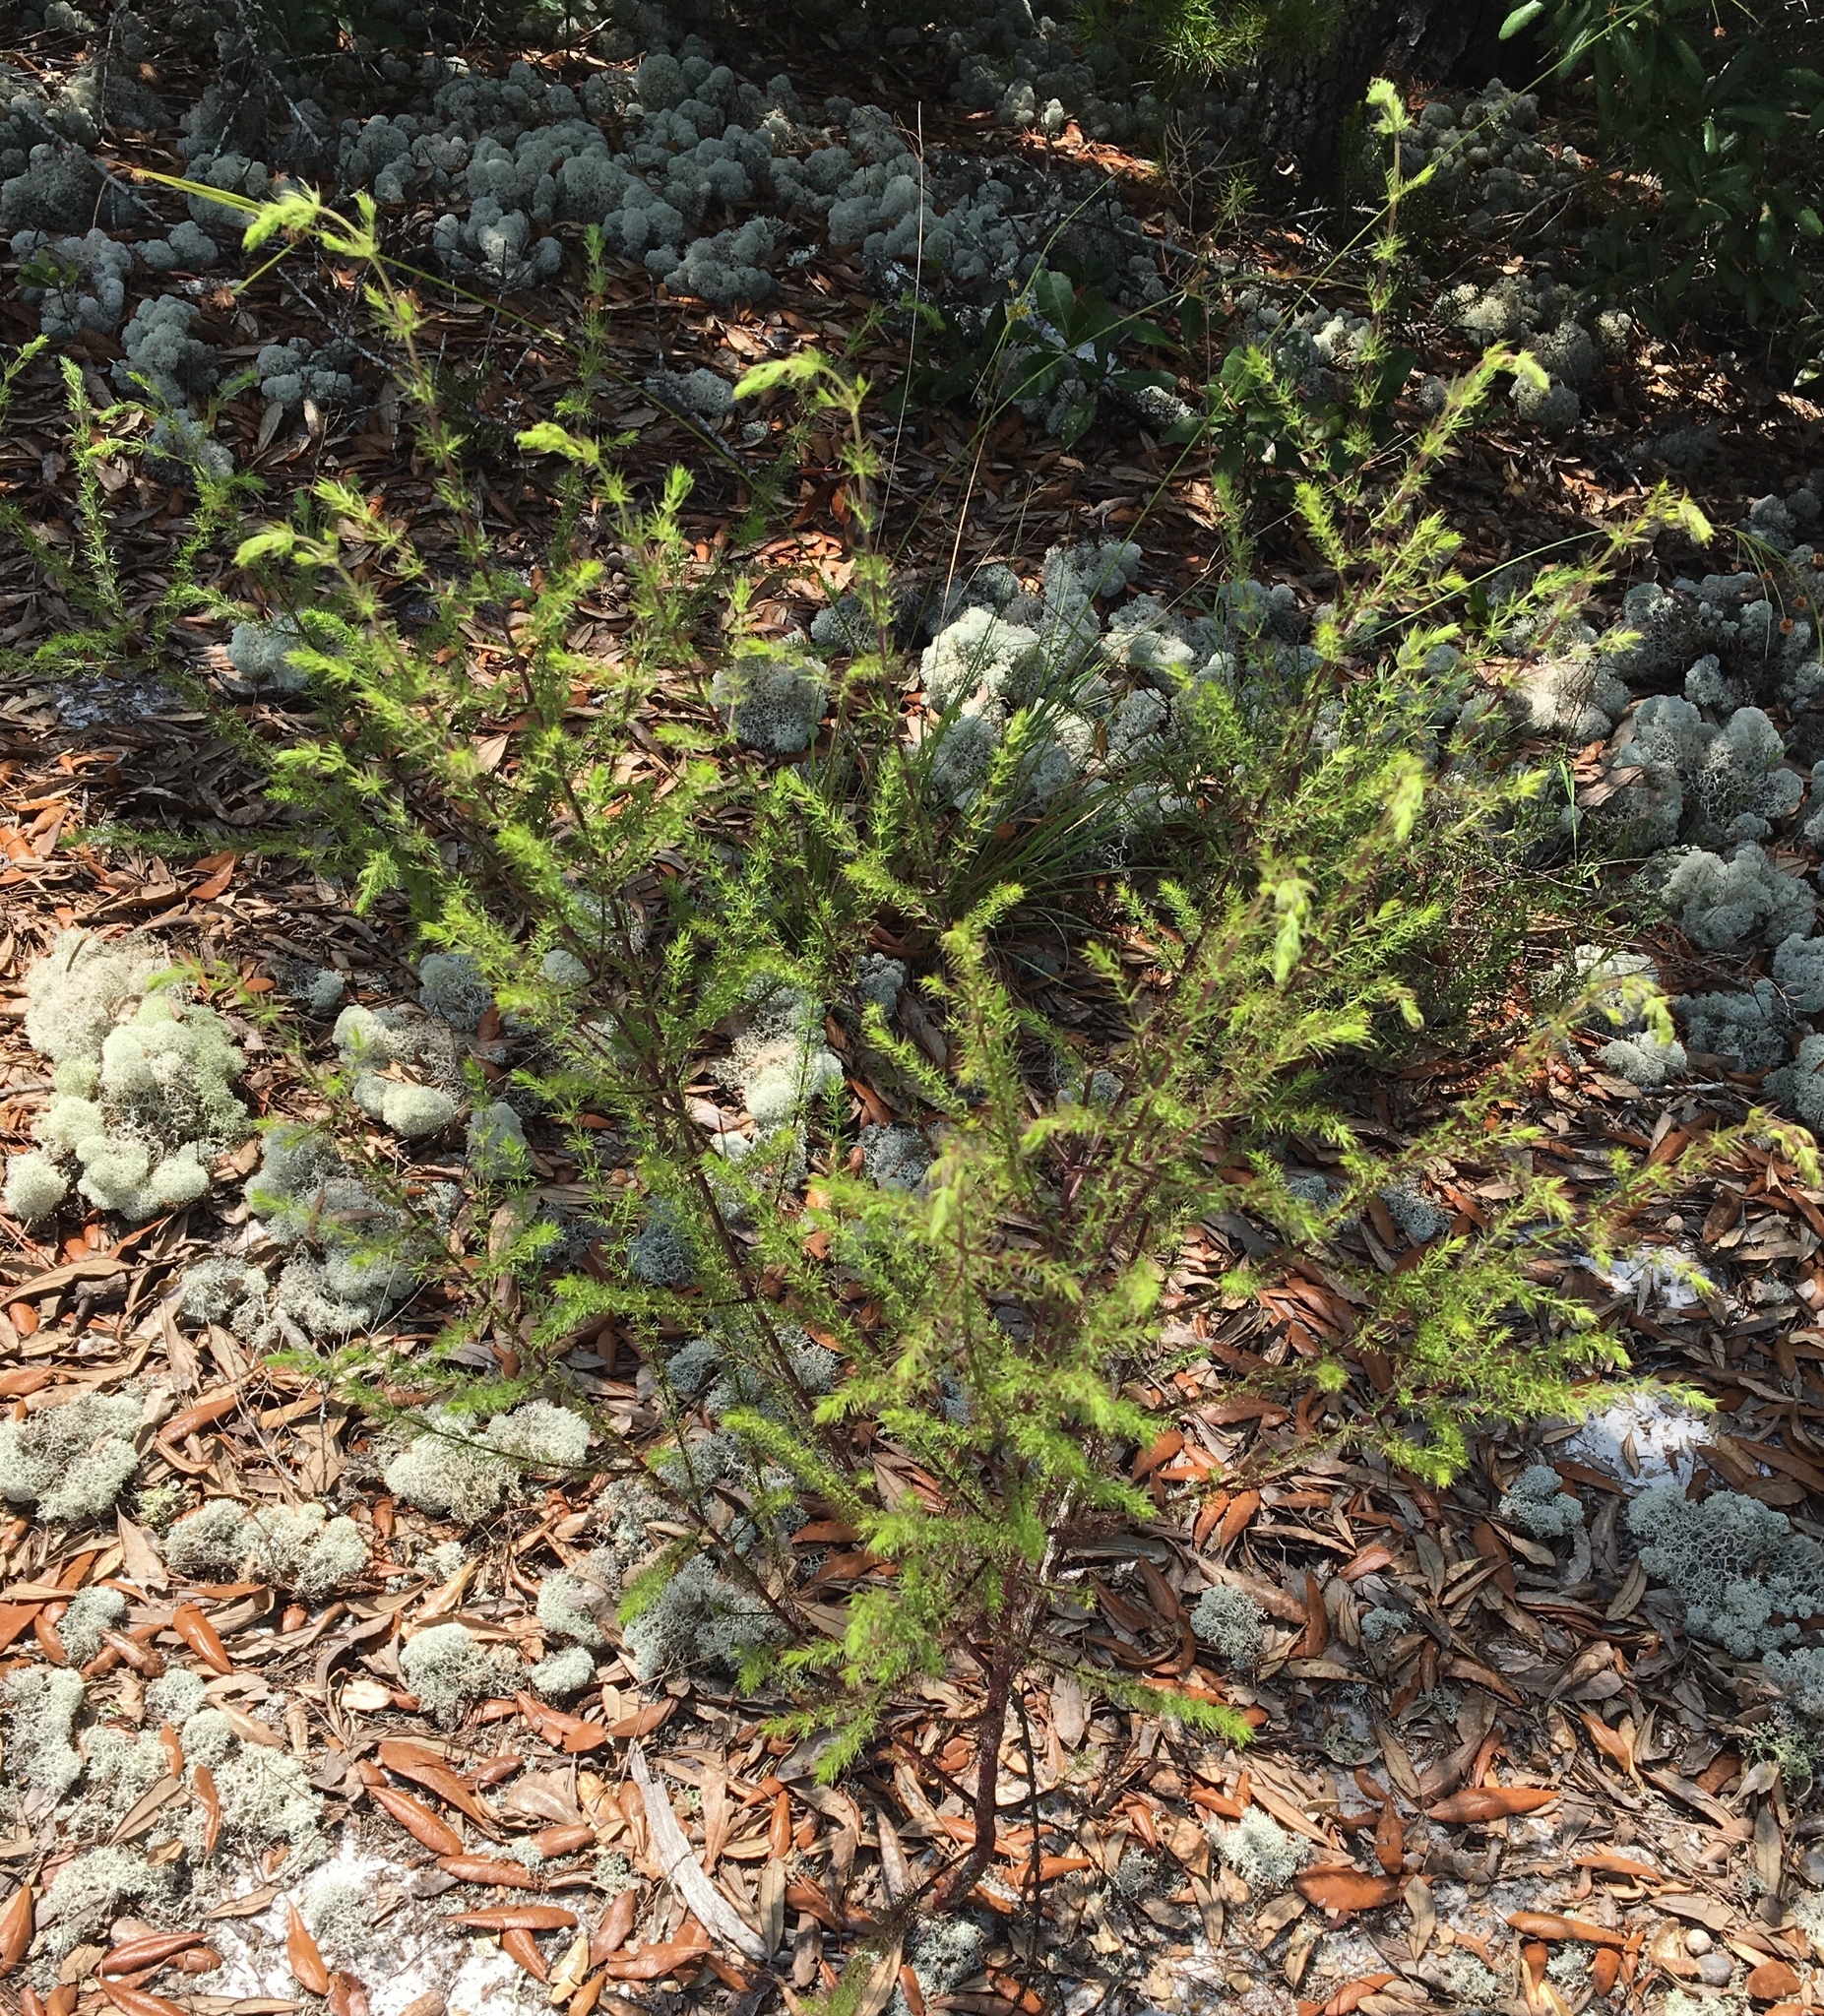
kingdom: Plantae
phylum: Tracheophyta
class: Magnoliopsida
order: Lamiales
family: Orobanchaceae
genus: Seymeria
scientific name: Seymeria cassioides
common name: Yaupon black-senna
